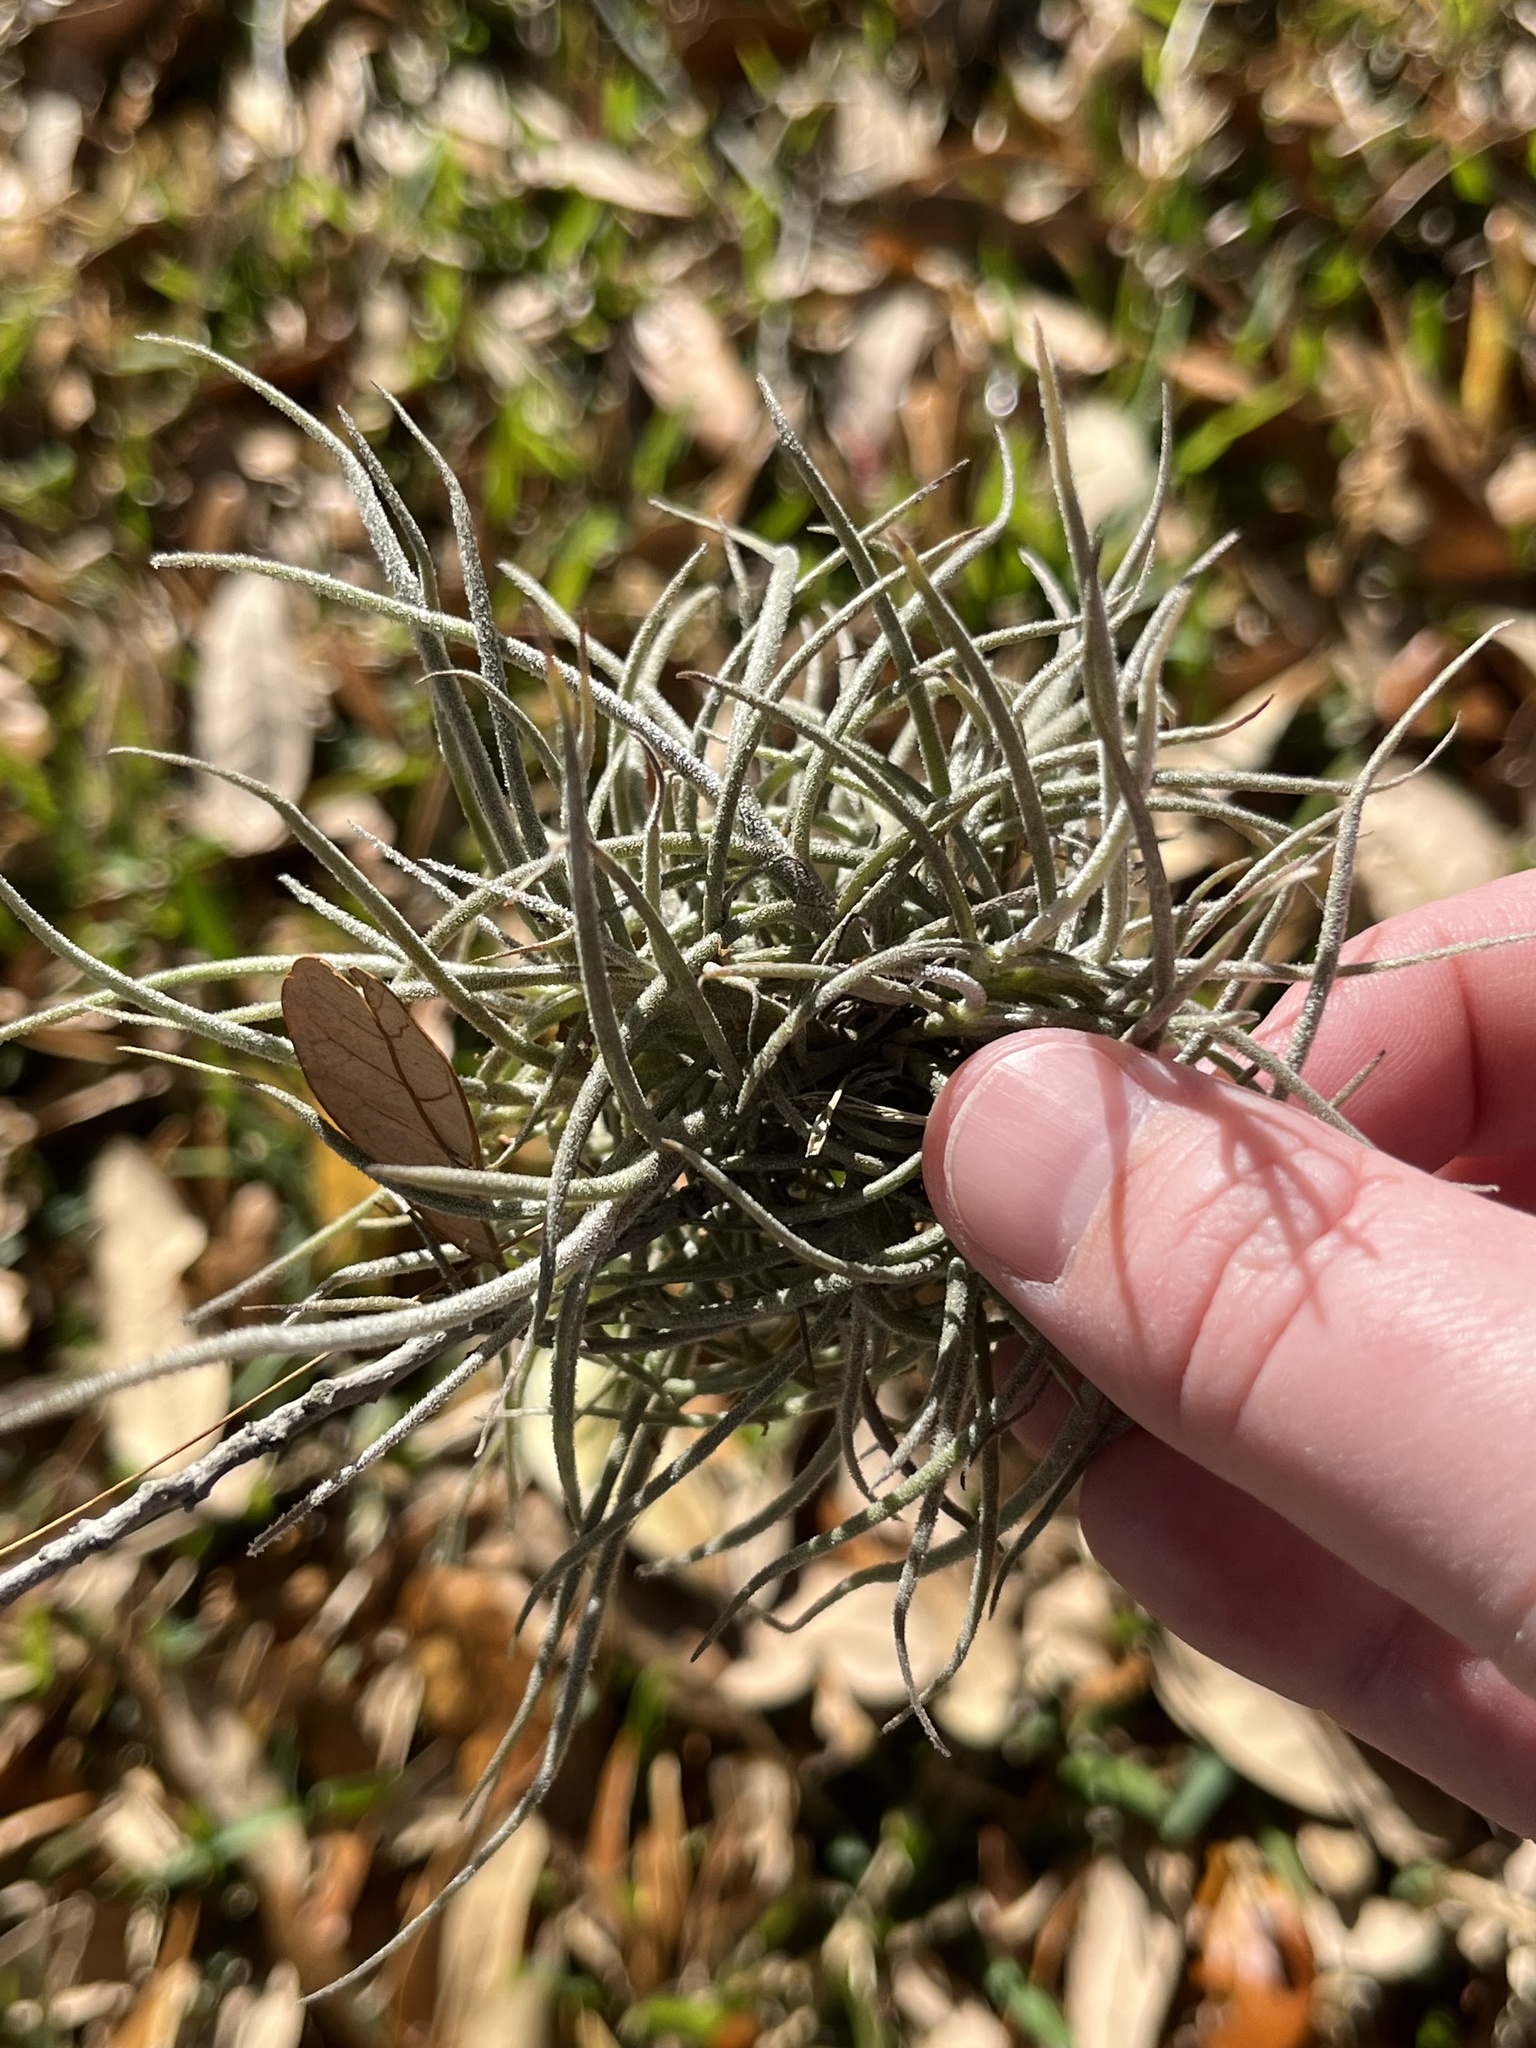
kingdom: Plantae
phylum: Tracheophyta
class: Liliopsida
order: Poales
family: Bromeliaceae
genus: Tillandsia
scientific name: Tillandsia recurvata
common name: Small ballmoss
